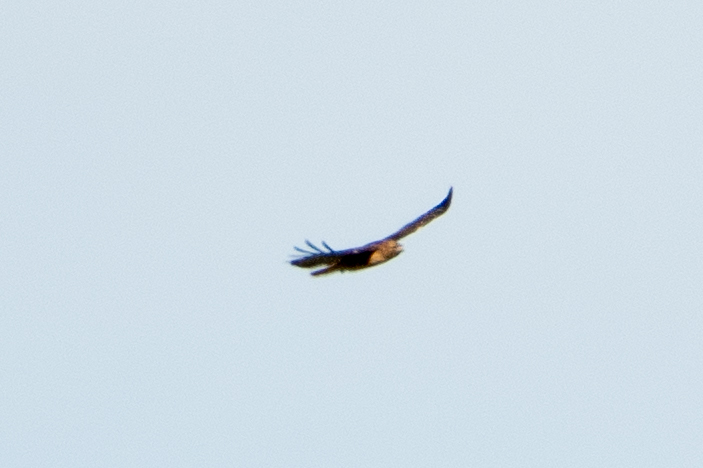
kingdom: Animalia
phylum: Chordata
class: Aves
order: Accipitriformes
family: Accipitridae
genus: Buteo
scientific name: Buteo jamaicensis
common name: Red-tailed hawk
